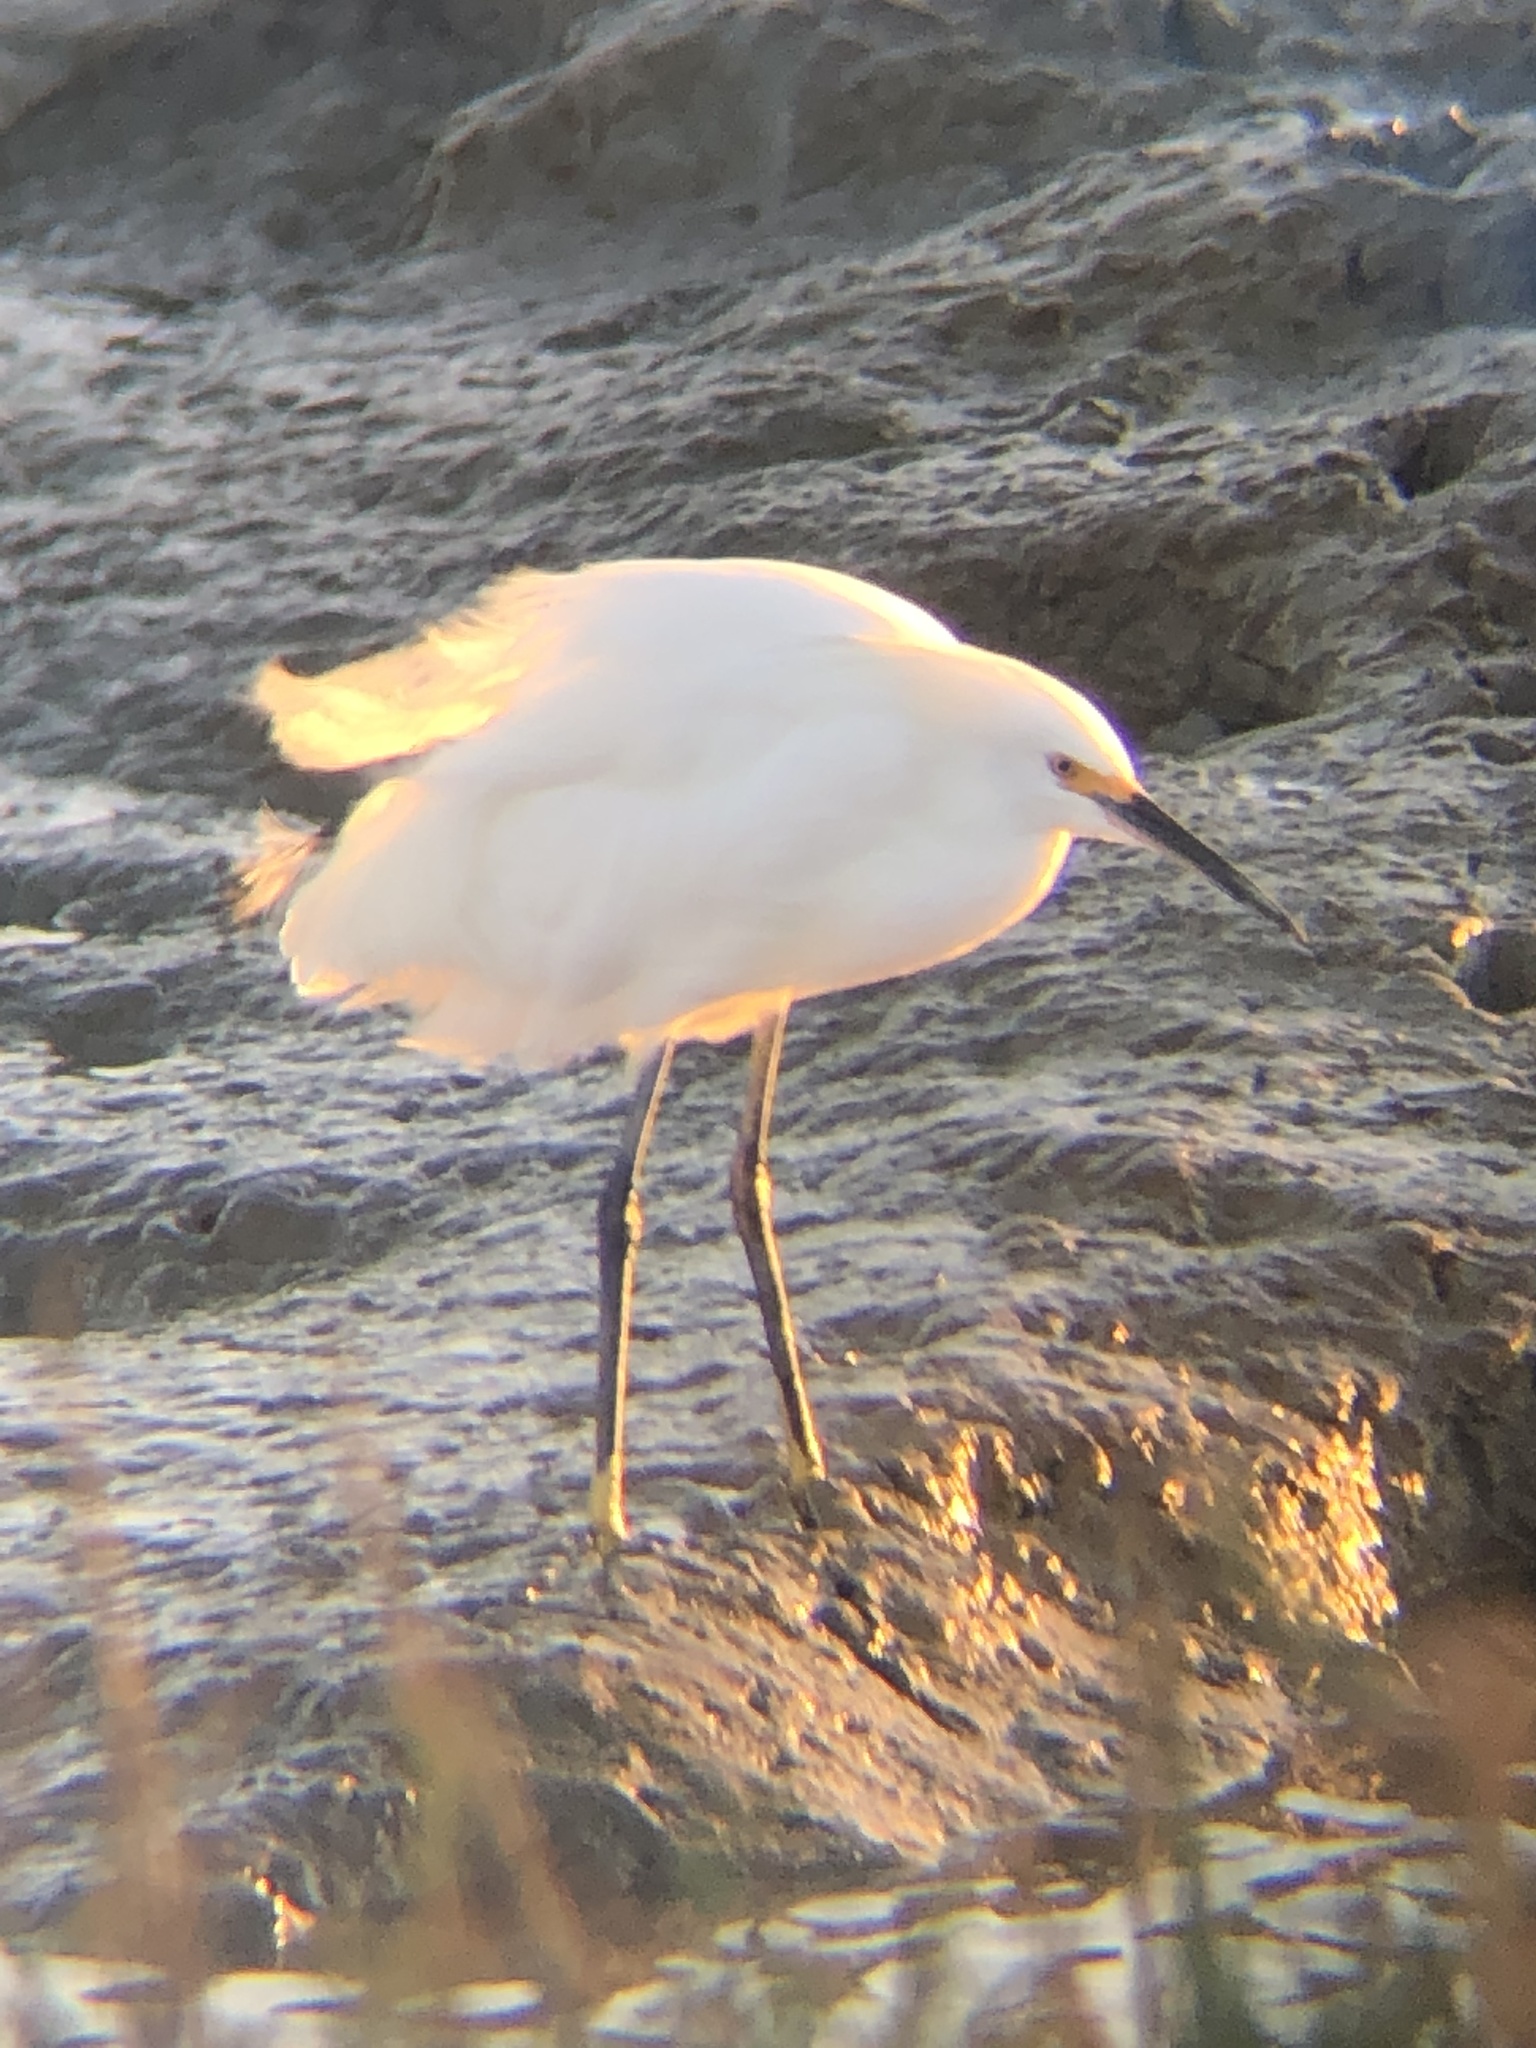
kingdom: Animalia
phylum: Chordata
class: Aves
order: Pelecaniformes
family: Ardeidae
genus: Egretta
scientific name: Egretta thula
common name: Snowy egret
